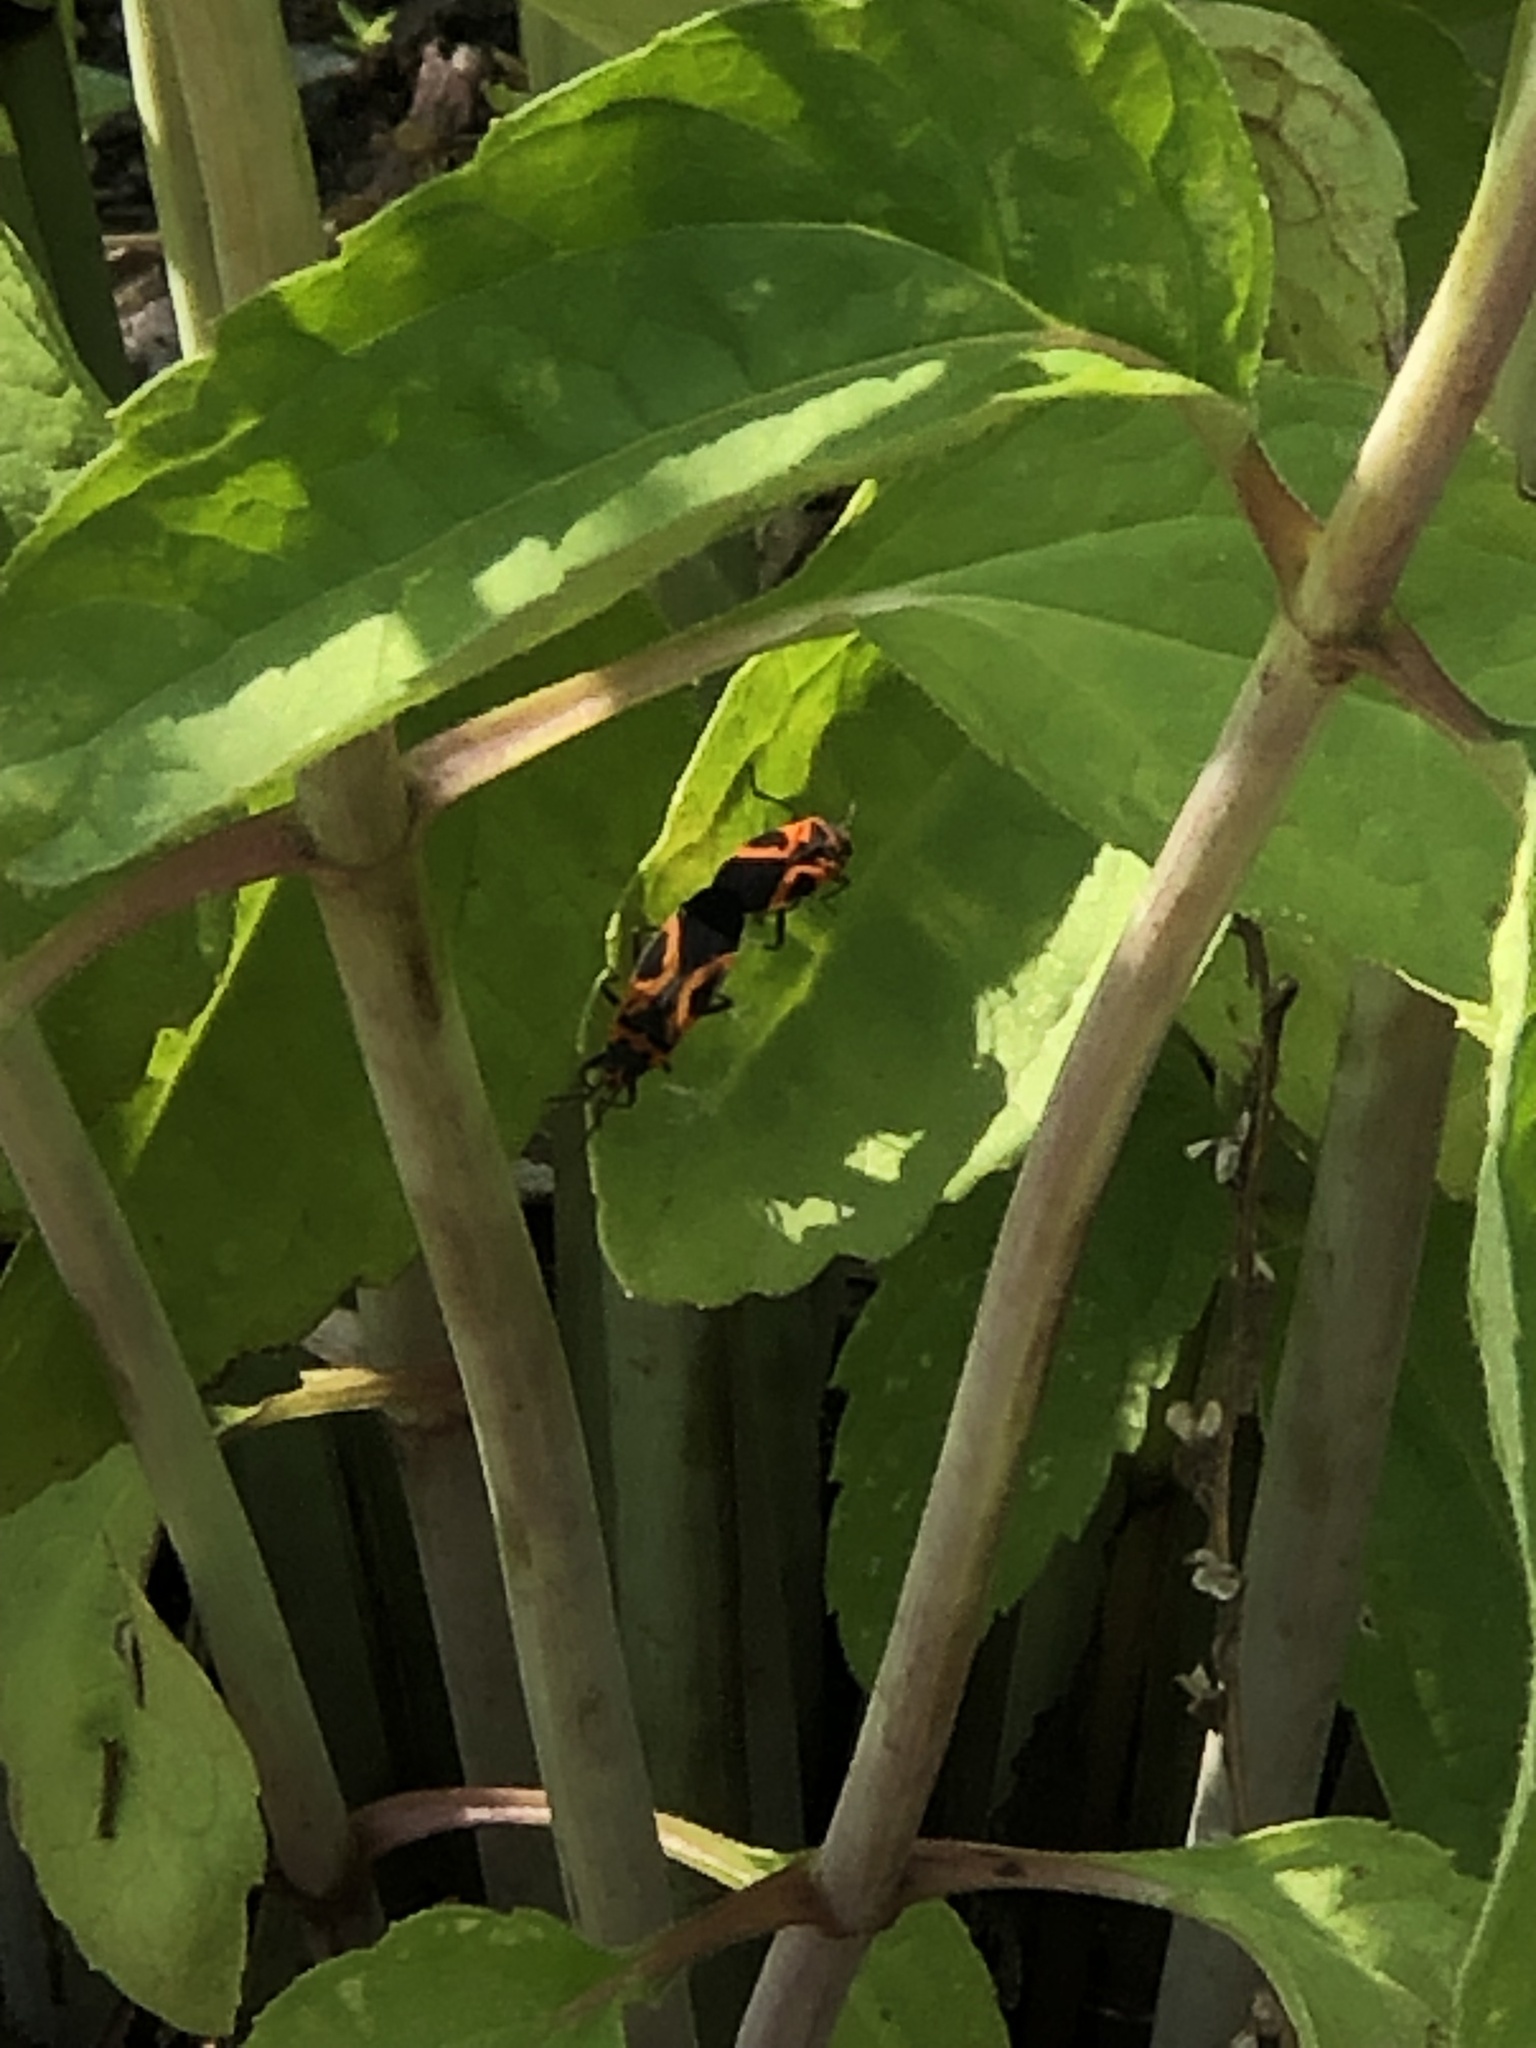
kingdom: Animalia
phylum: Arthropoda
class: Insecta
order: Hemiptera
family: Lygaeidae
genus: Lygaeus
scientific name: Lygaeus turcicus
